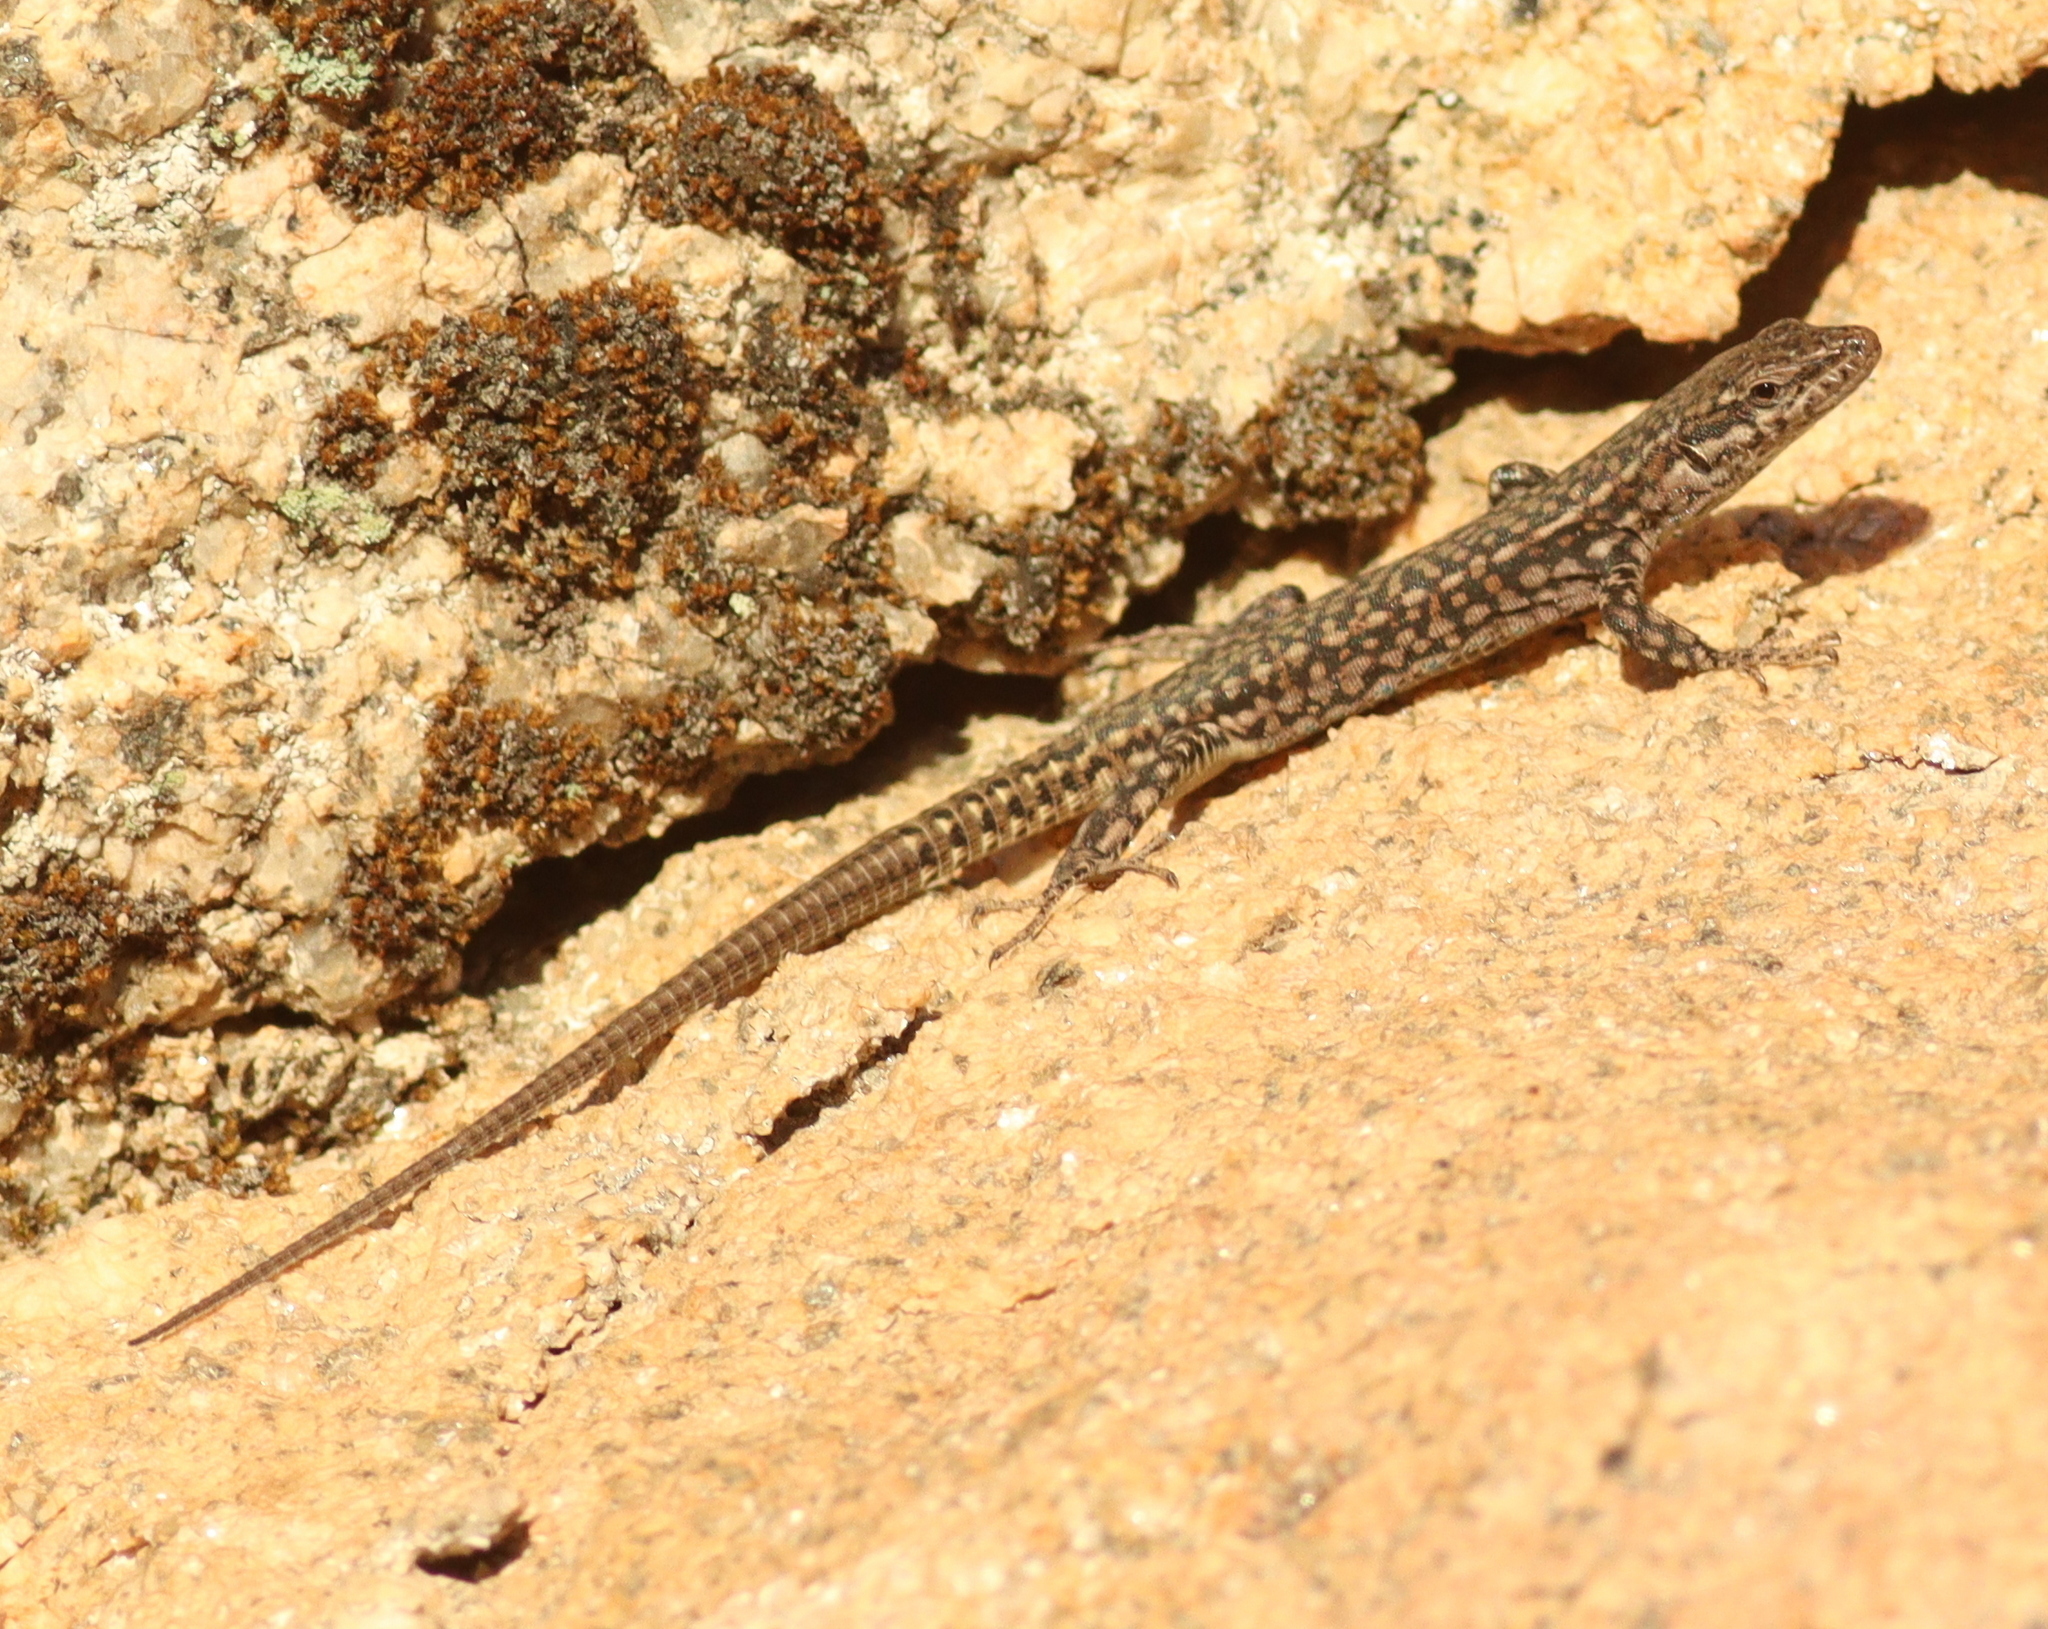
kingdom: Animalia
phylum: Chordata
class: Squamata
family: Lacertidae
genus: Podarcis
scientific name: Podarcis virescens
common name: Geniez’s wall lizard
